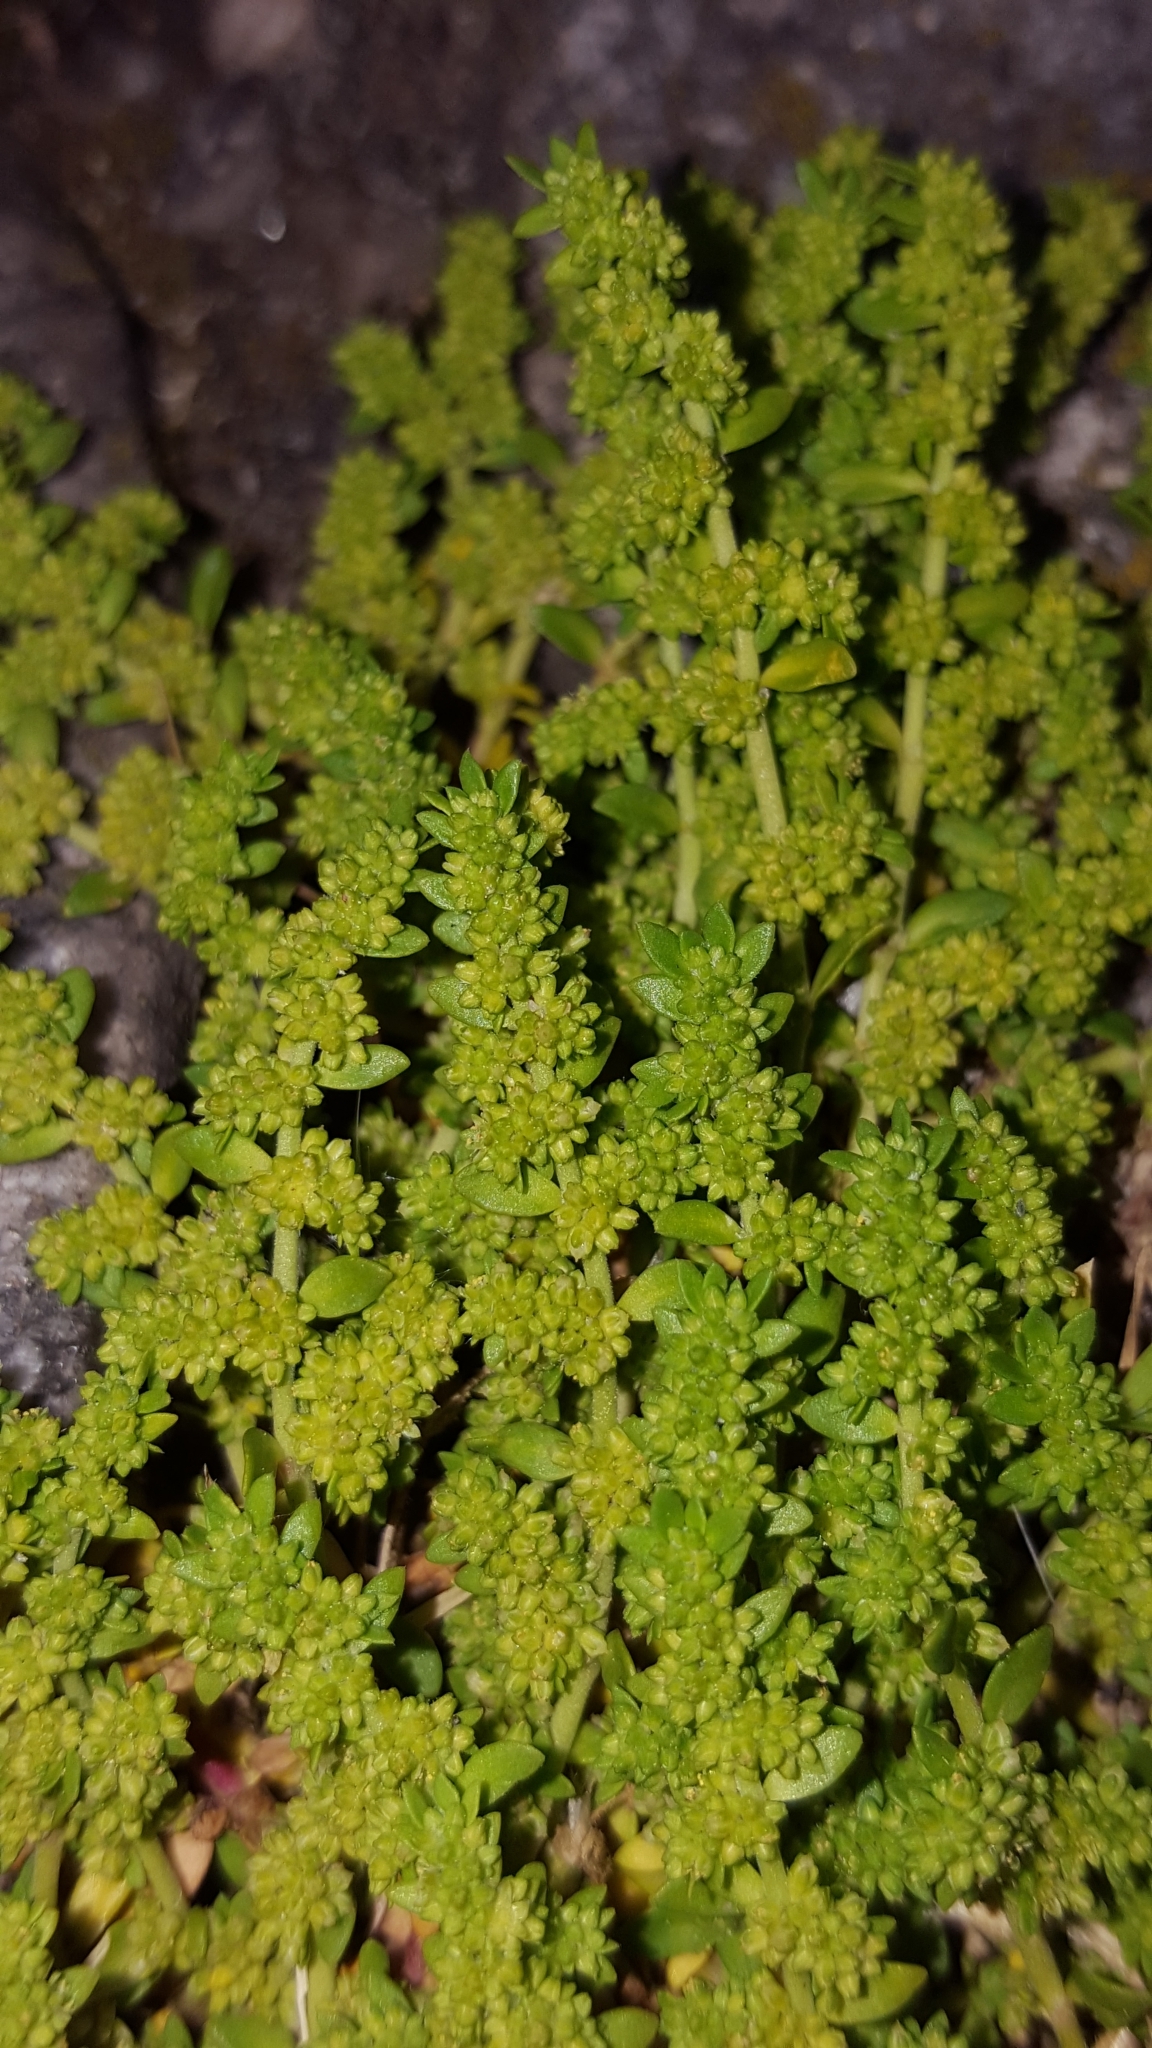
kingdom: Plantae
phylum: Tracheophyta
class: Magnoliopsida
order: Caryophyllales
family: Caryophyllaceae
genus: Herniaria
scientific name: Herniaria glabra
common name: Smooth rupturewort
